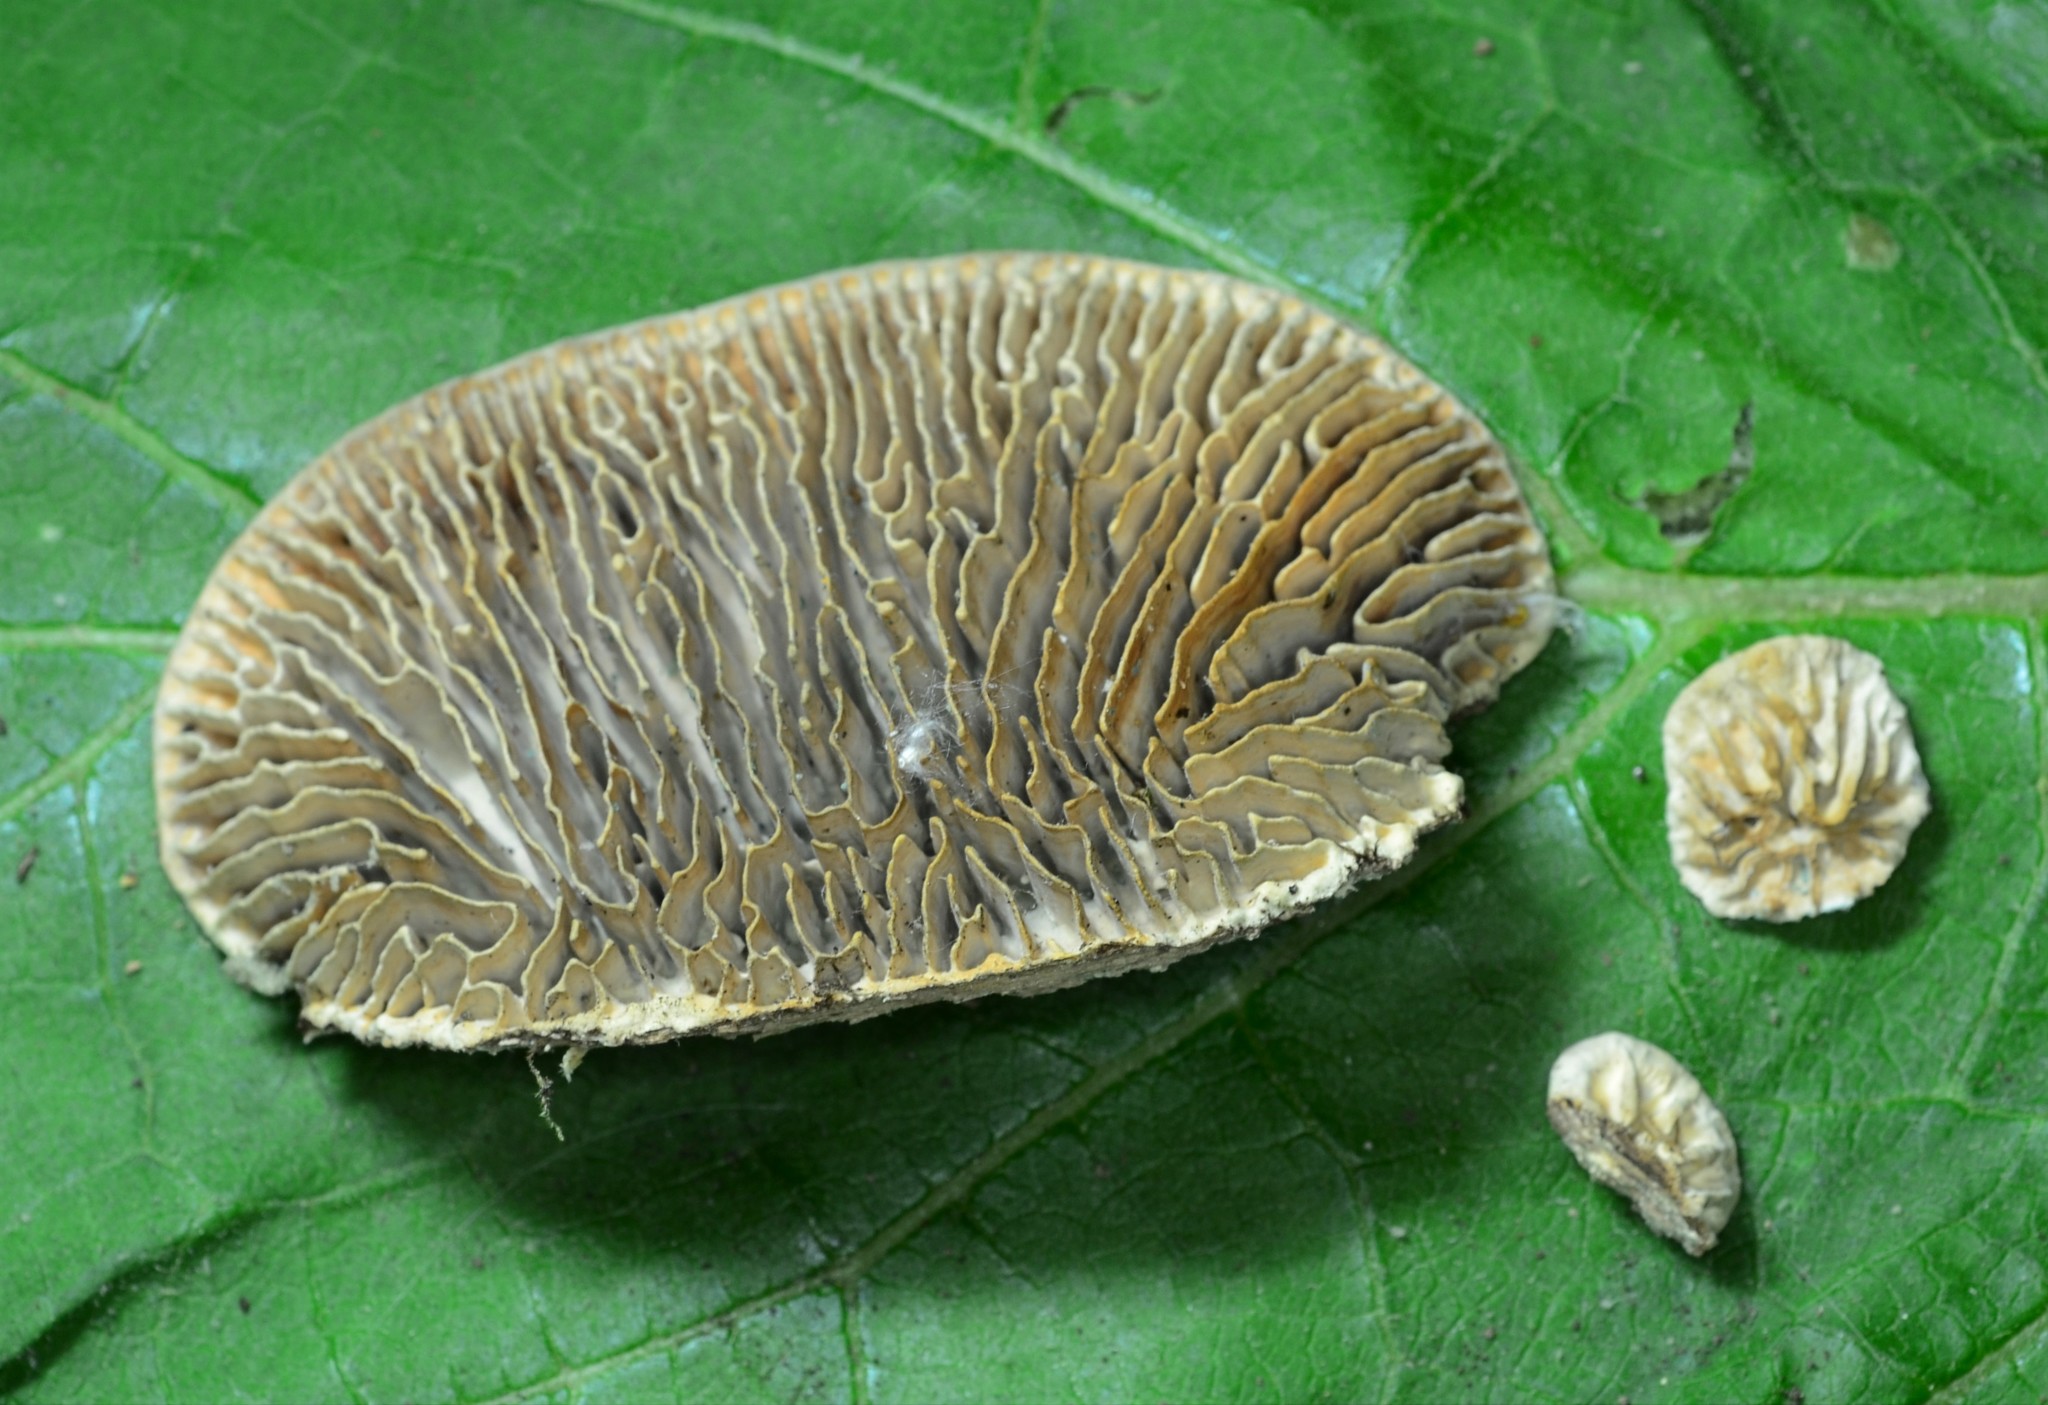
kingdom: Fungi
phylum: Basidiomycota
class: Agaricomycetes
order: Polyporales
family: Fomitopsidaceae
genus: Fomitopsis
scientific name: Fomitopsis
